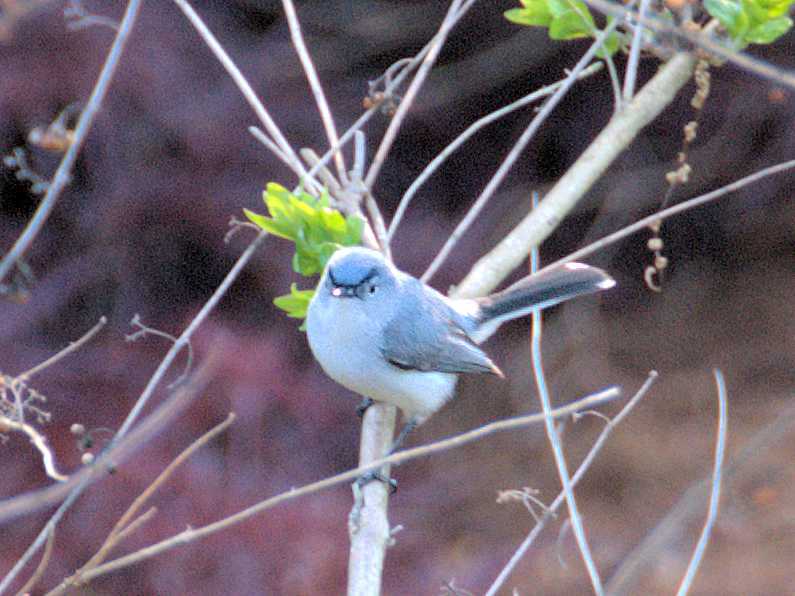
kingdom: Animalia
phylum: Chordata
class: Aves
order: Passeriformes
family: Polioptilidae
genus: Polioptila
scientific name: Polioptila caerulea
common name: Blue-gray gnatcatcher
